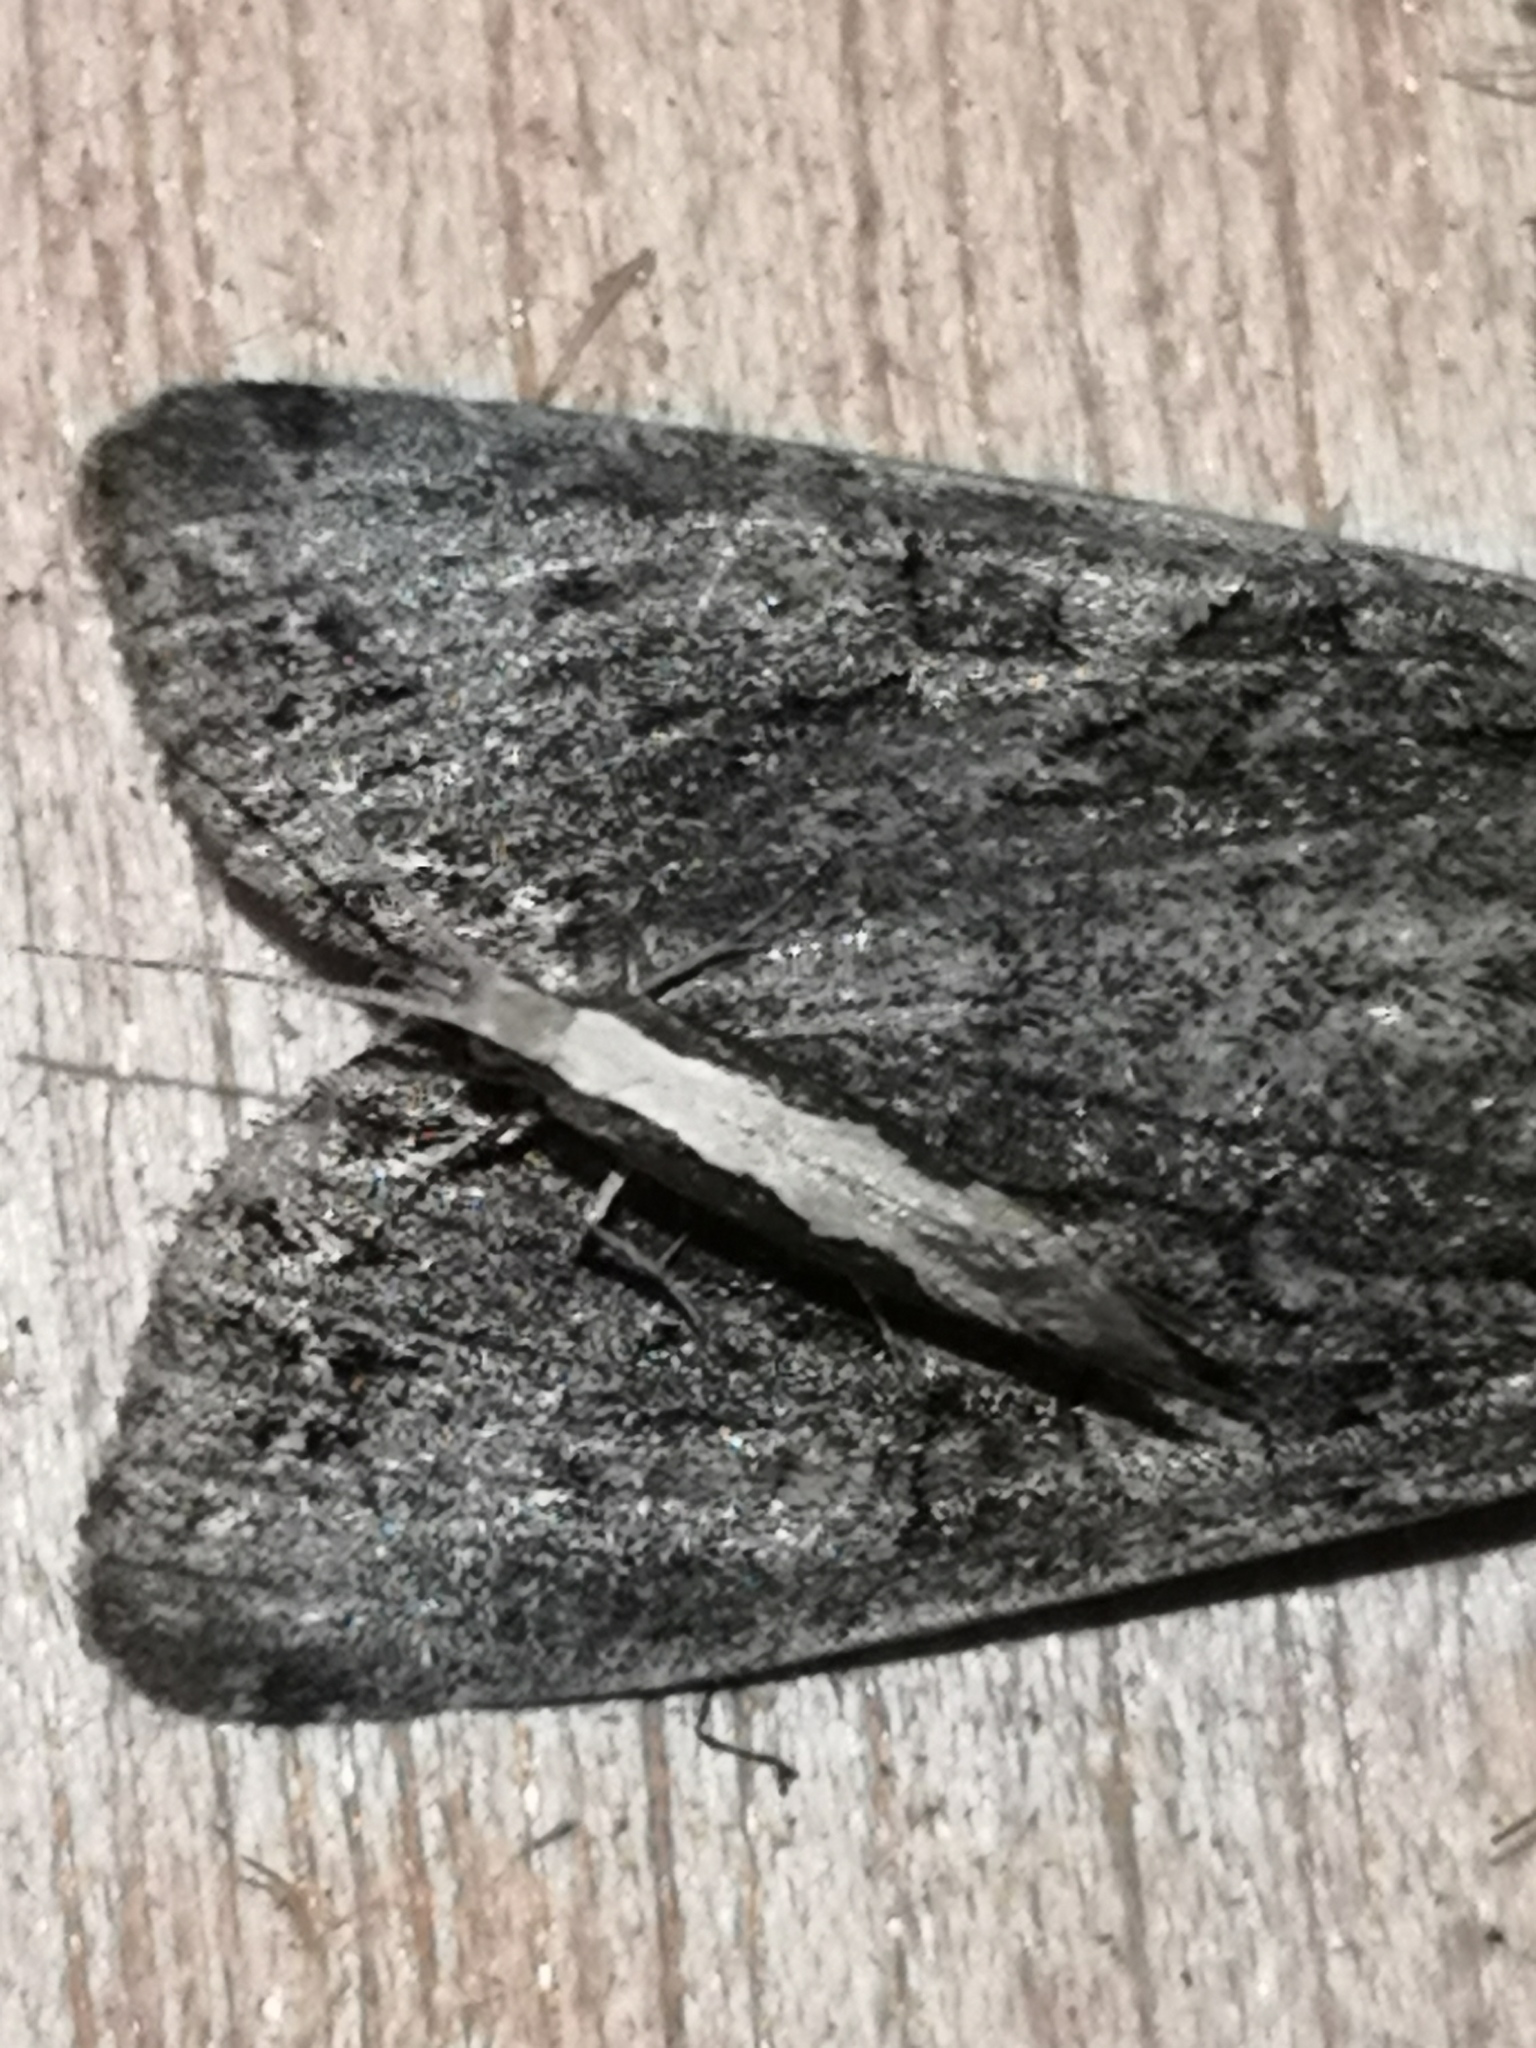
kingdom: Animalia
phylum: Arthropoda
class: Insecta
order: Lepidoptera
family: Plutellidae
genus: Plutella
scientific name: Plutella xylostella
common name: Diamond-back moth
